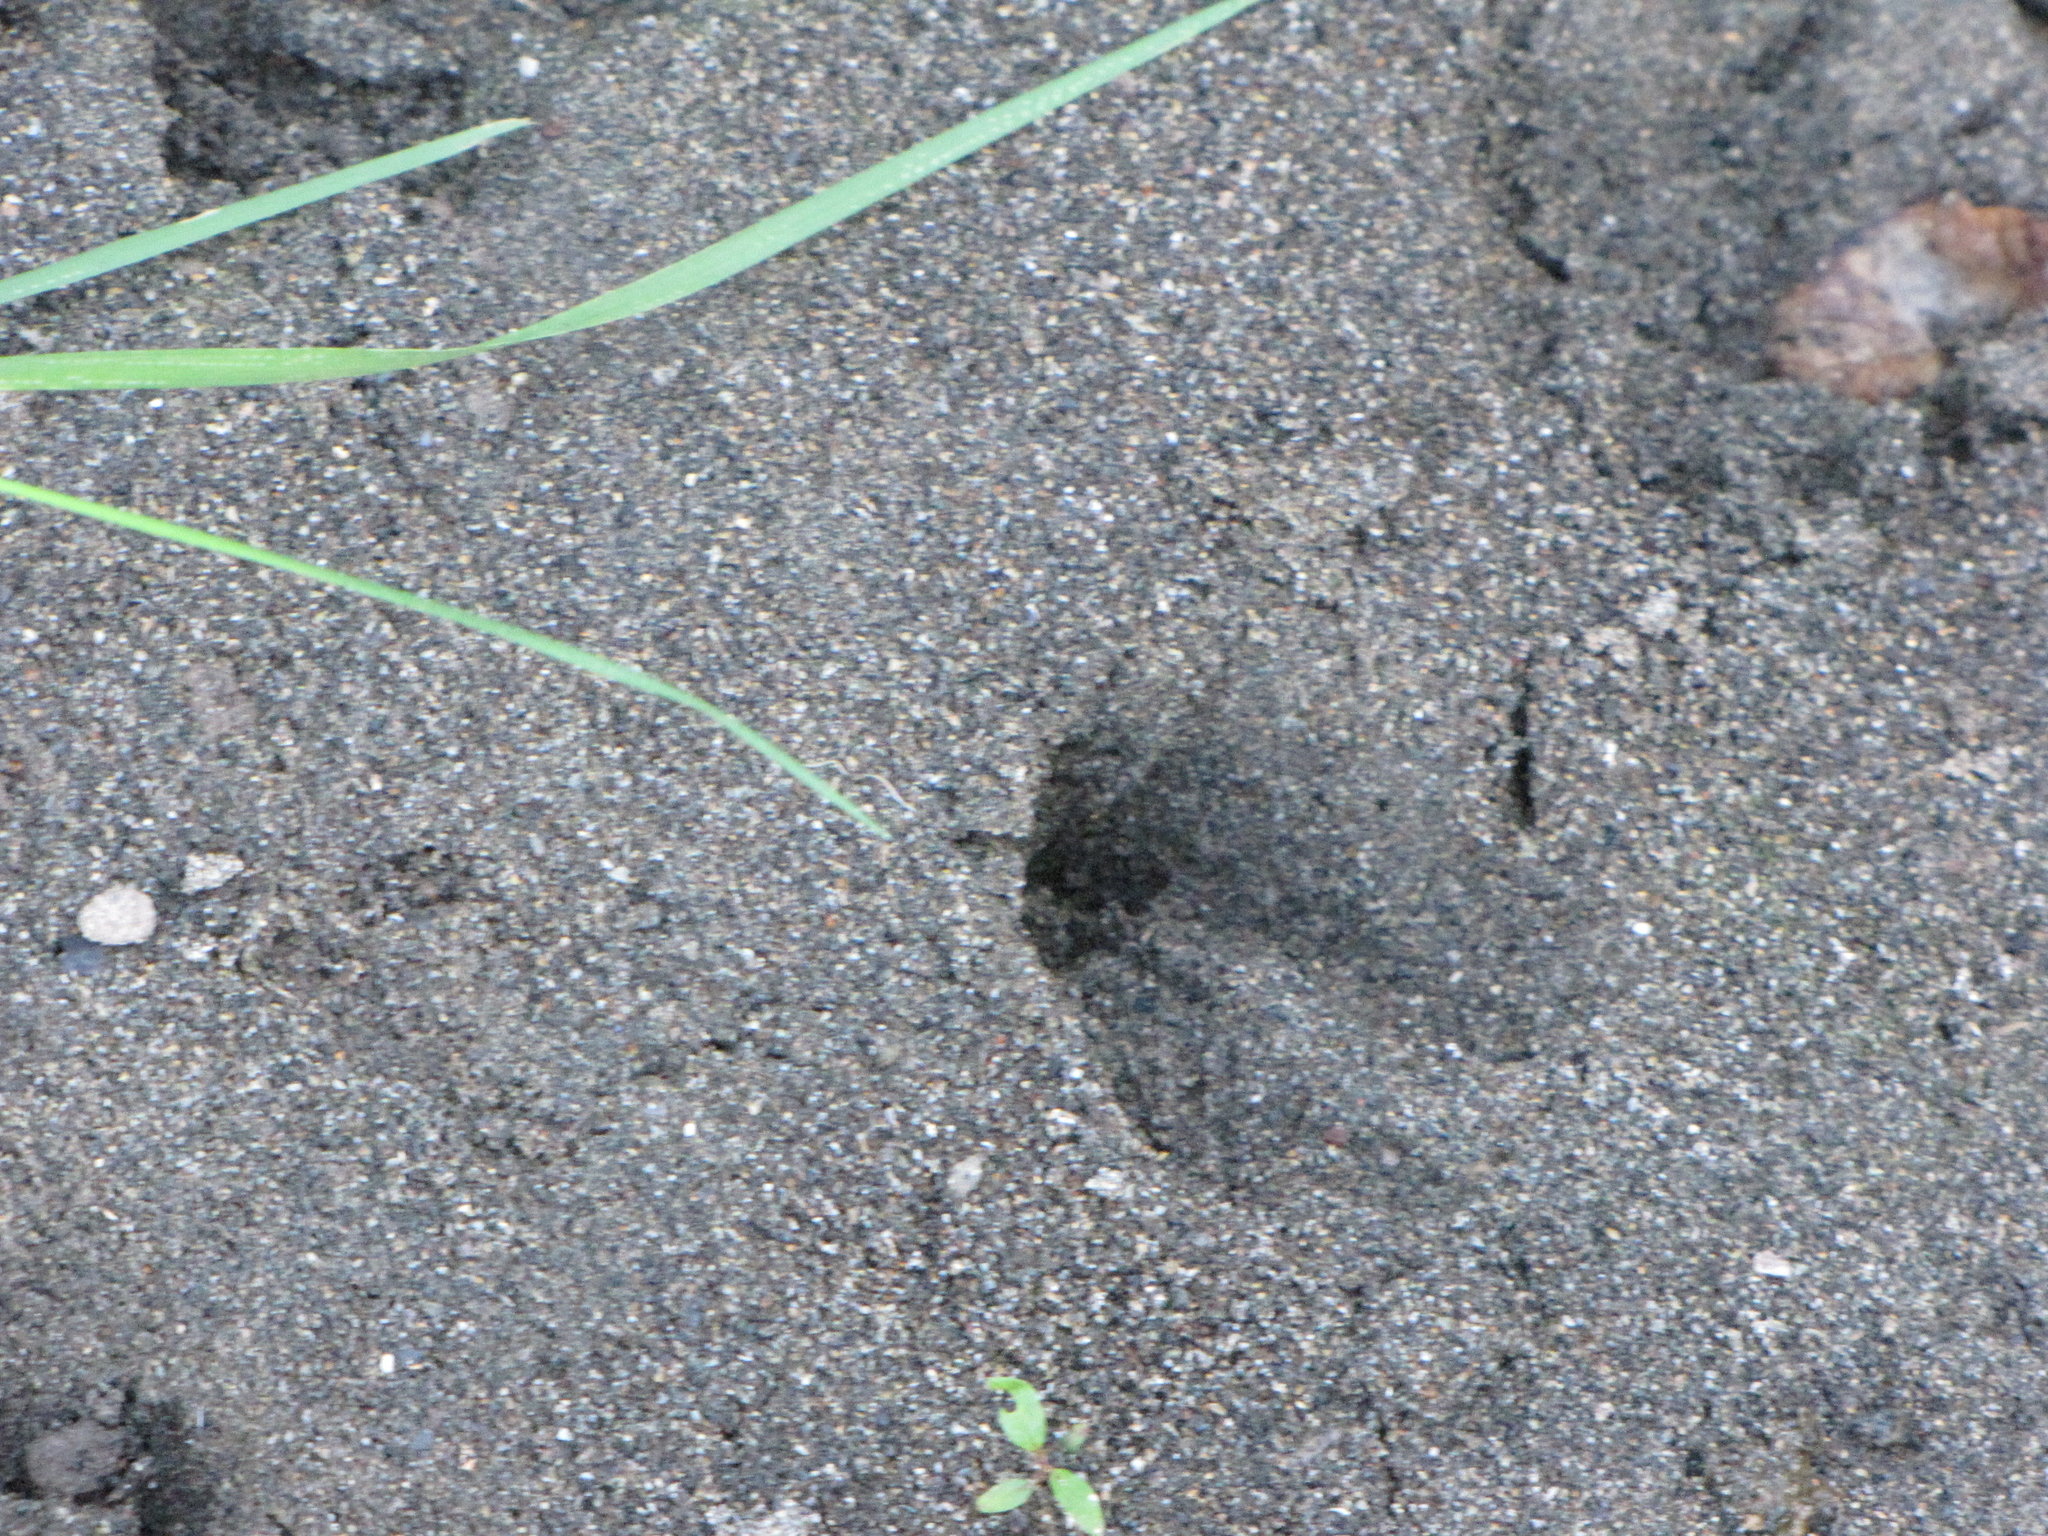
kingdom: Animalia
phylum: Chordata
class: Mammalia
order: Artiodactyla
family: Cervidae
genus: Odocoileus
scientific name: Odocoileus hemionus
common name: Mule deer
